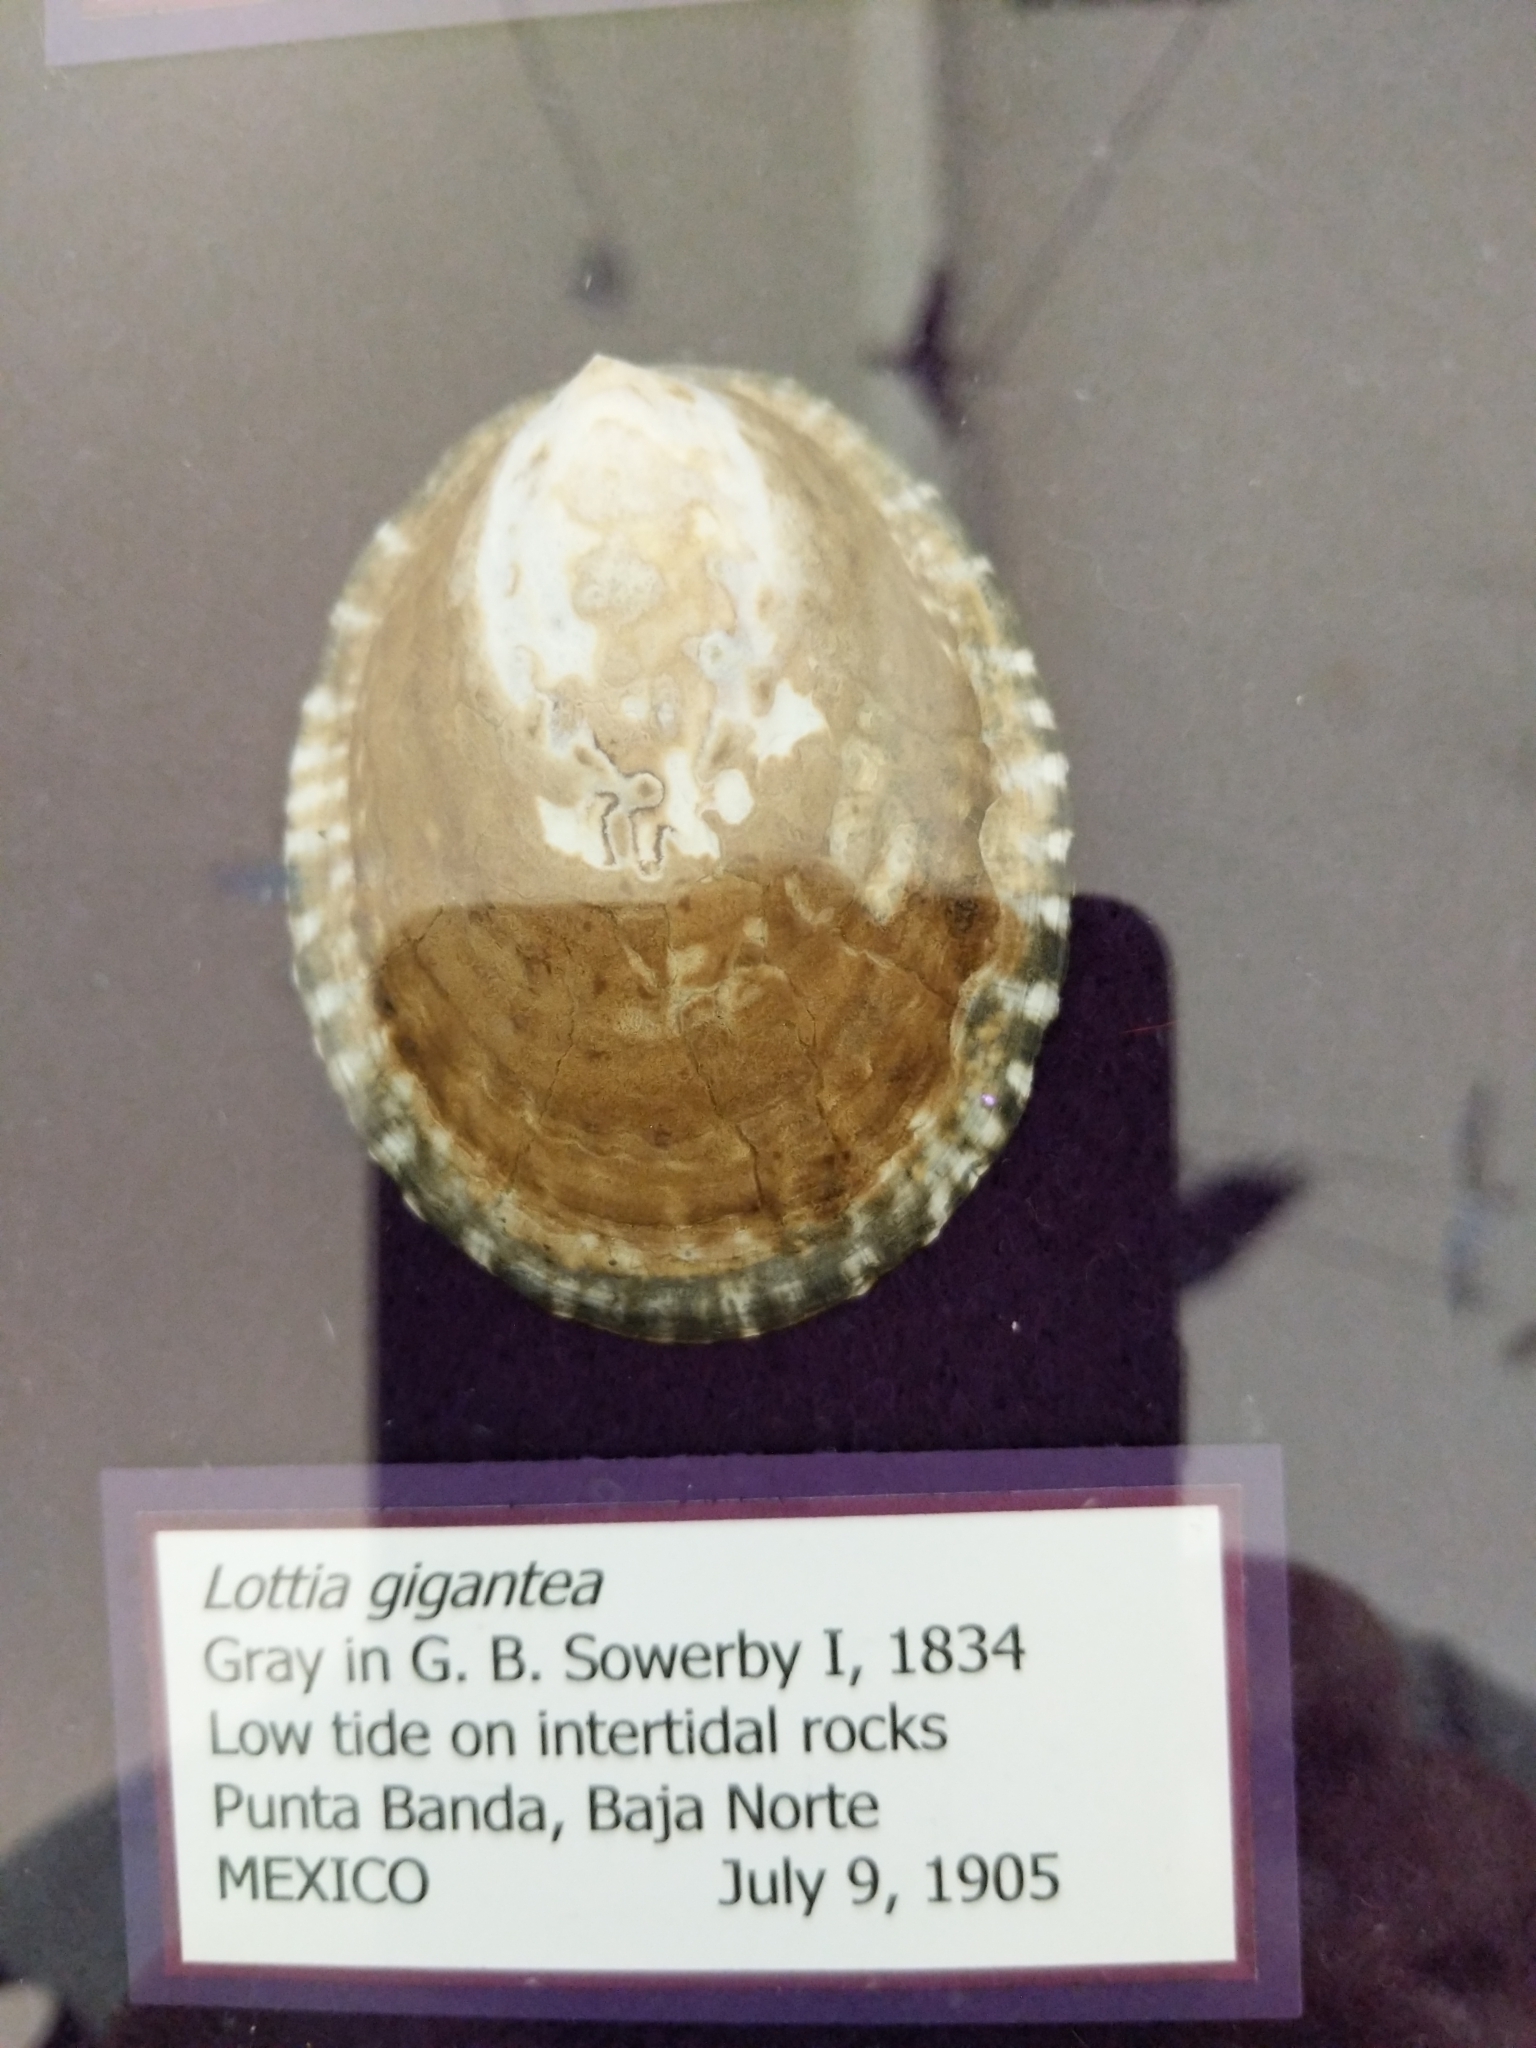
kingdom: Animalia
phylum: Mollusca
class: Gastropoda
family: Lottiidae
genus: Lottia
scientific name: Lottia gigantea
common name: Owl limpet
